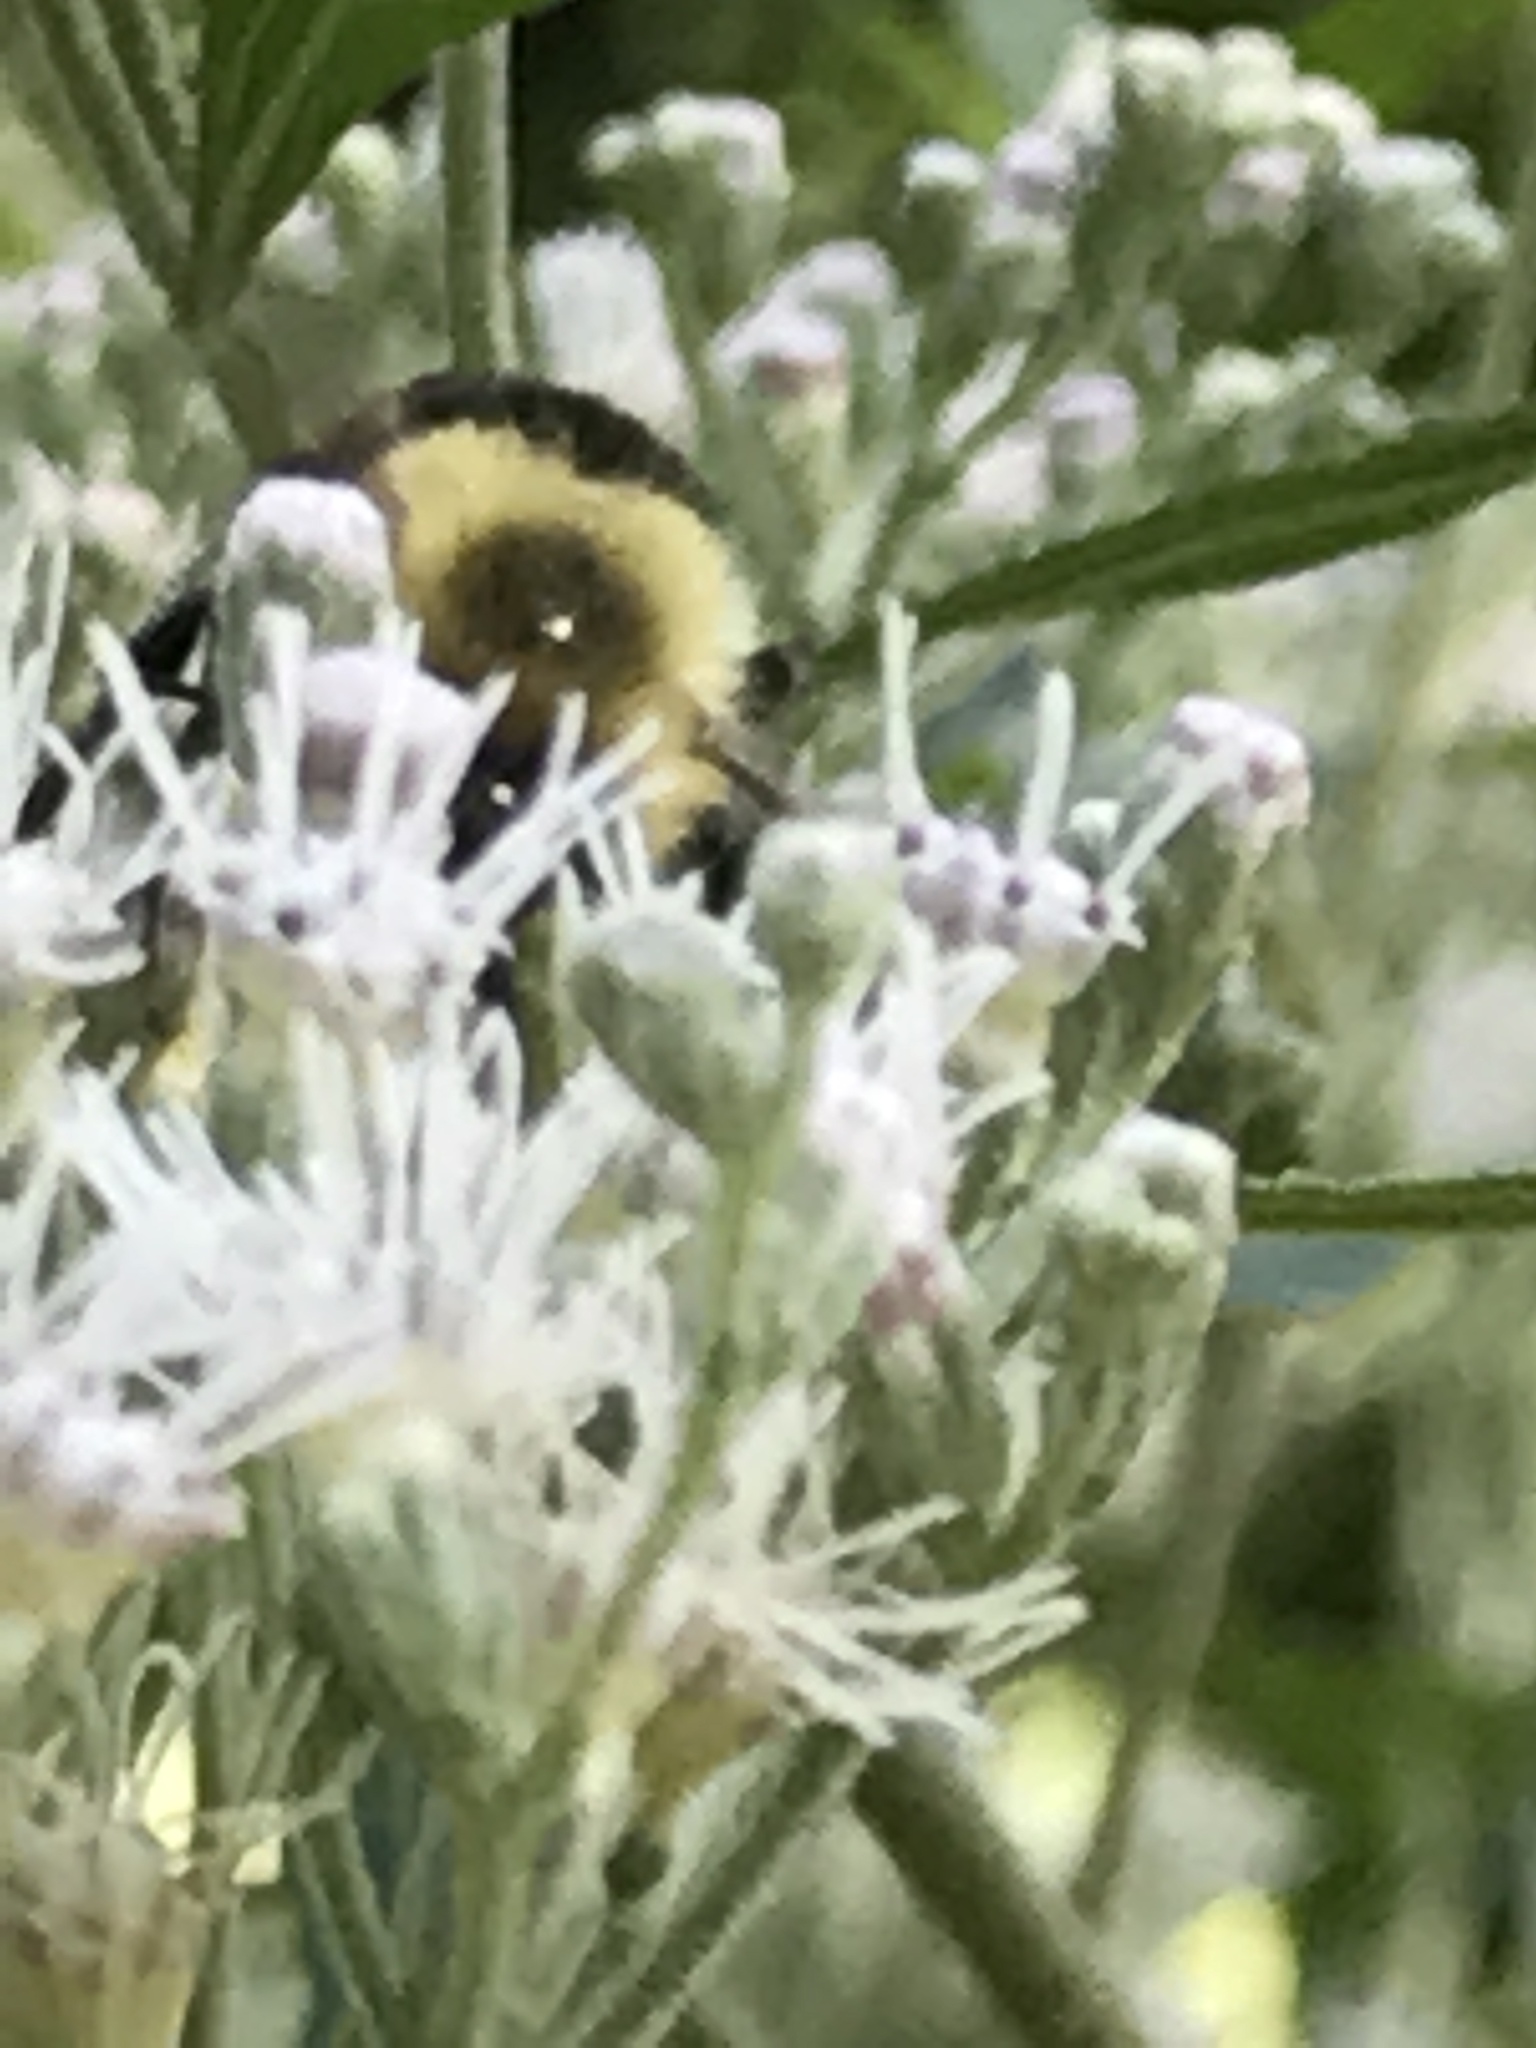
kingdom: Animalia
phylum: Arthropoda
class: Insecta
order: Hymenoptera
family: Apidae
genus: Bombus
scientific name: Bombus impatiens
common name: Common eastern bumble bee
